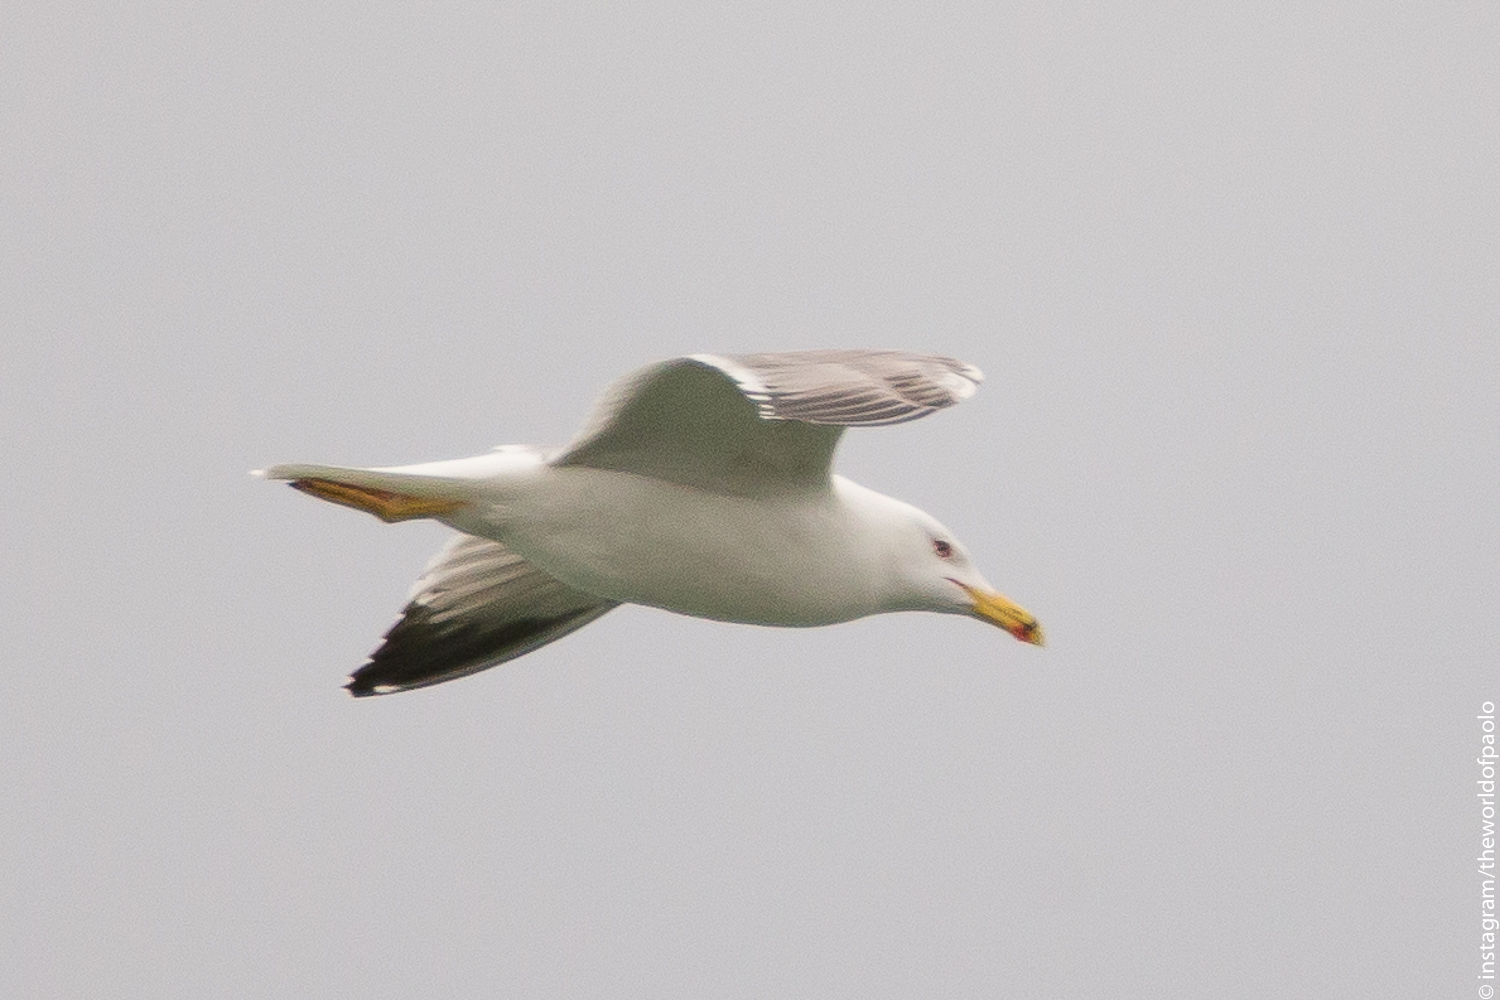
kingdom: Animalia
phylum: Chordata
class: Aves
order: Charadriiformes
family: Laridae
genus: Larus
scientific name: Larus michahellis
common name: Yellow-legged gull
